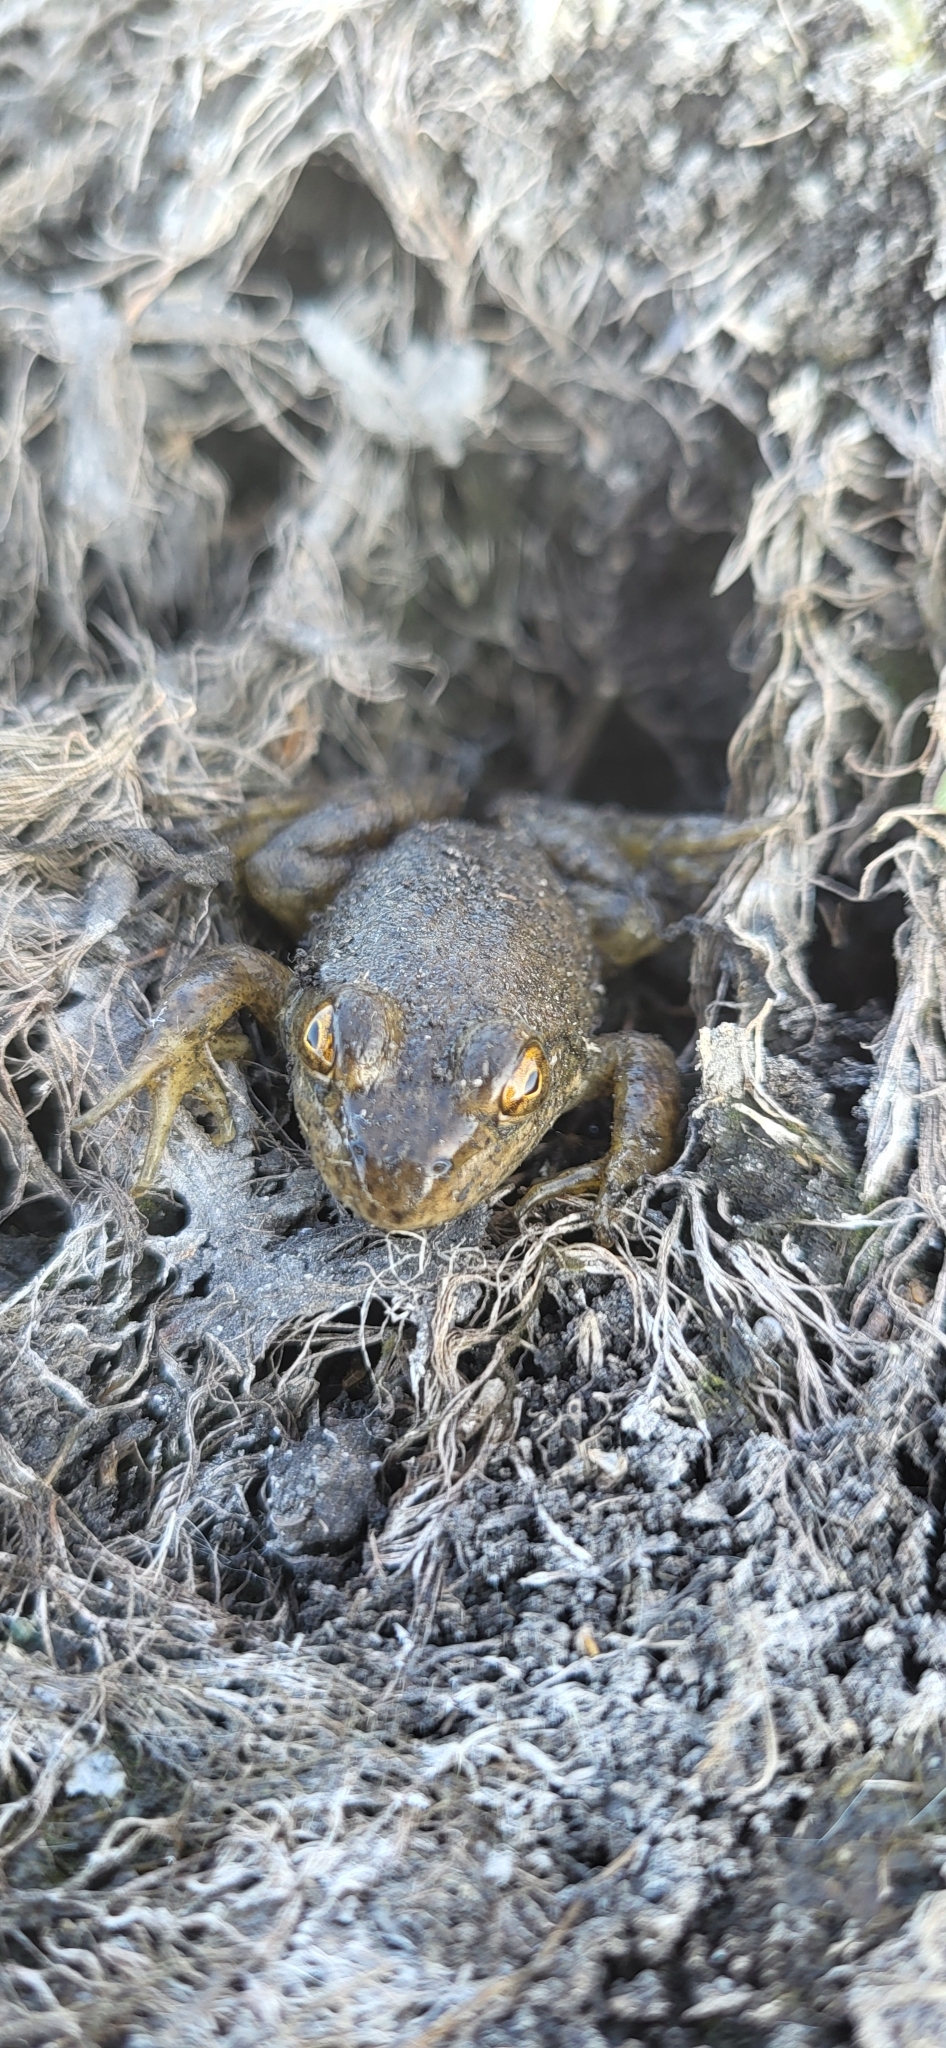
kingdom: Animalia
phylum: Chordata
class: Amphibia
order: Anura
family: Ranidae
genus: Lithobates
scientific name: Lithobates catesbeianus
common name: American bullfrog
